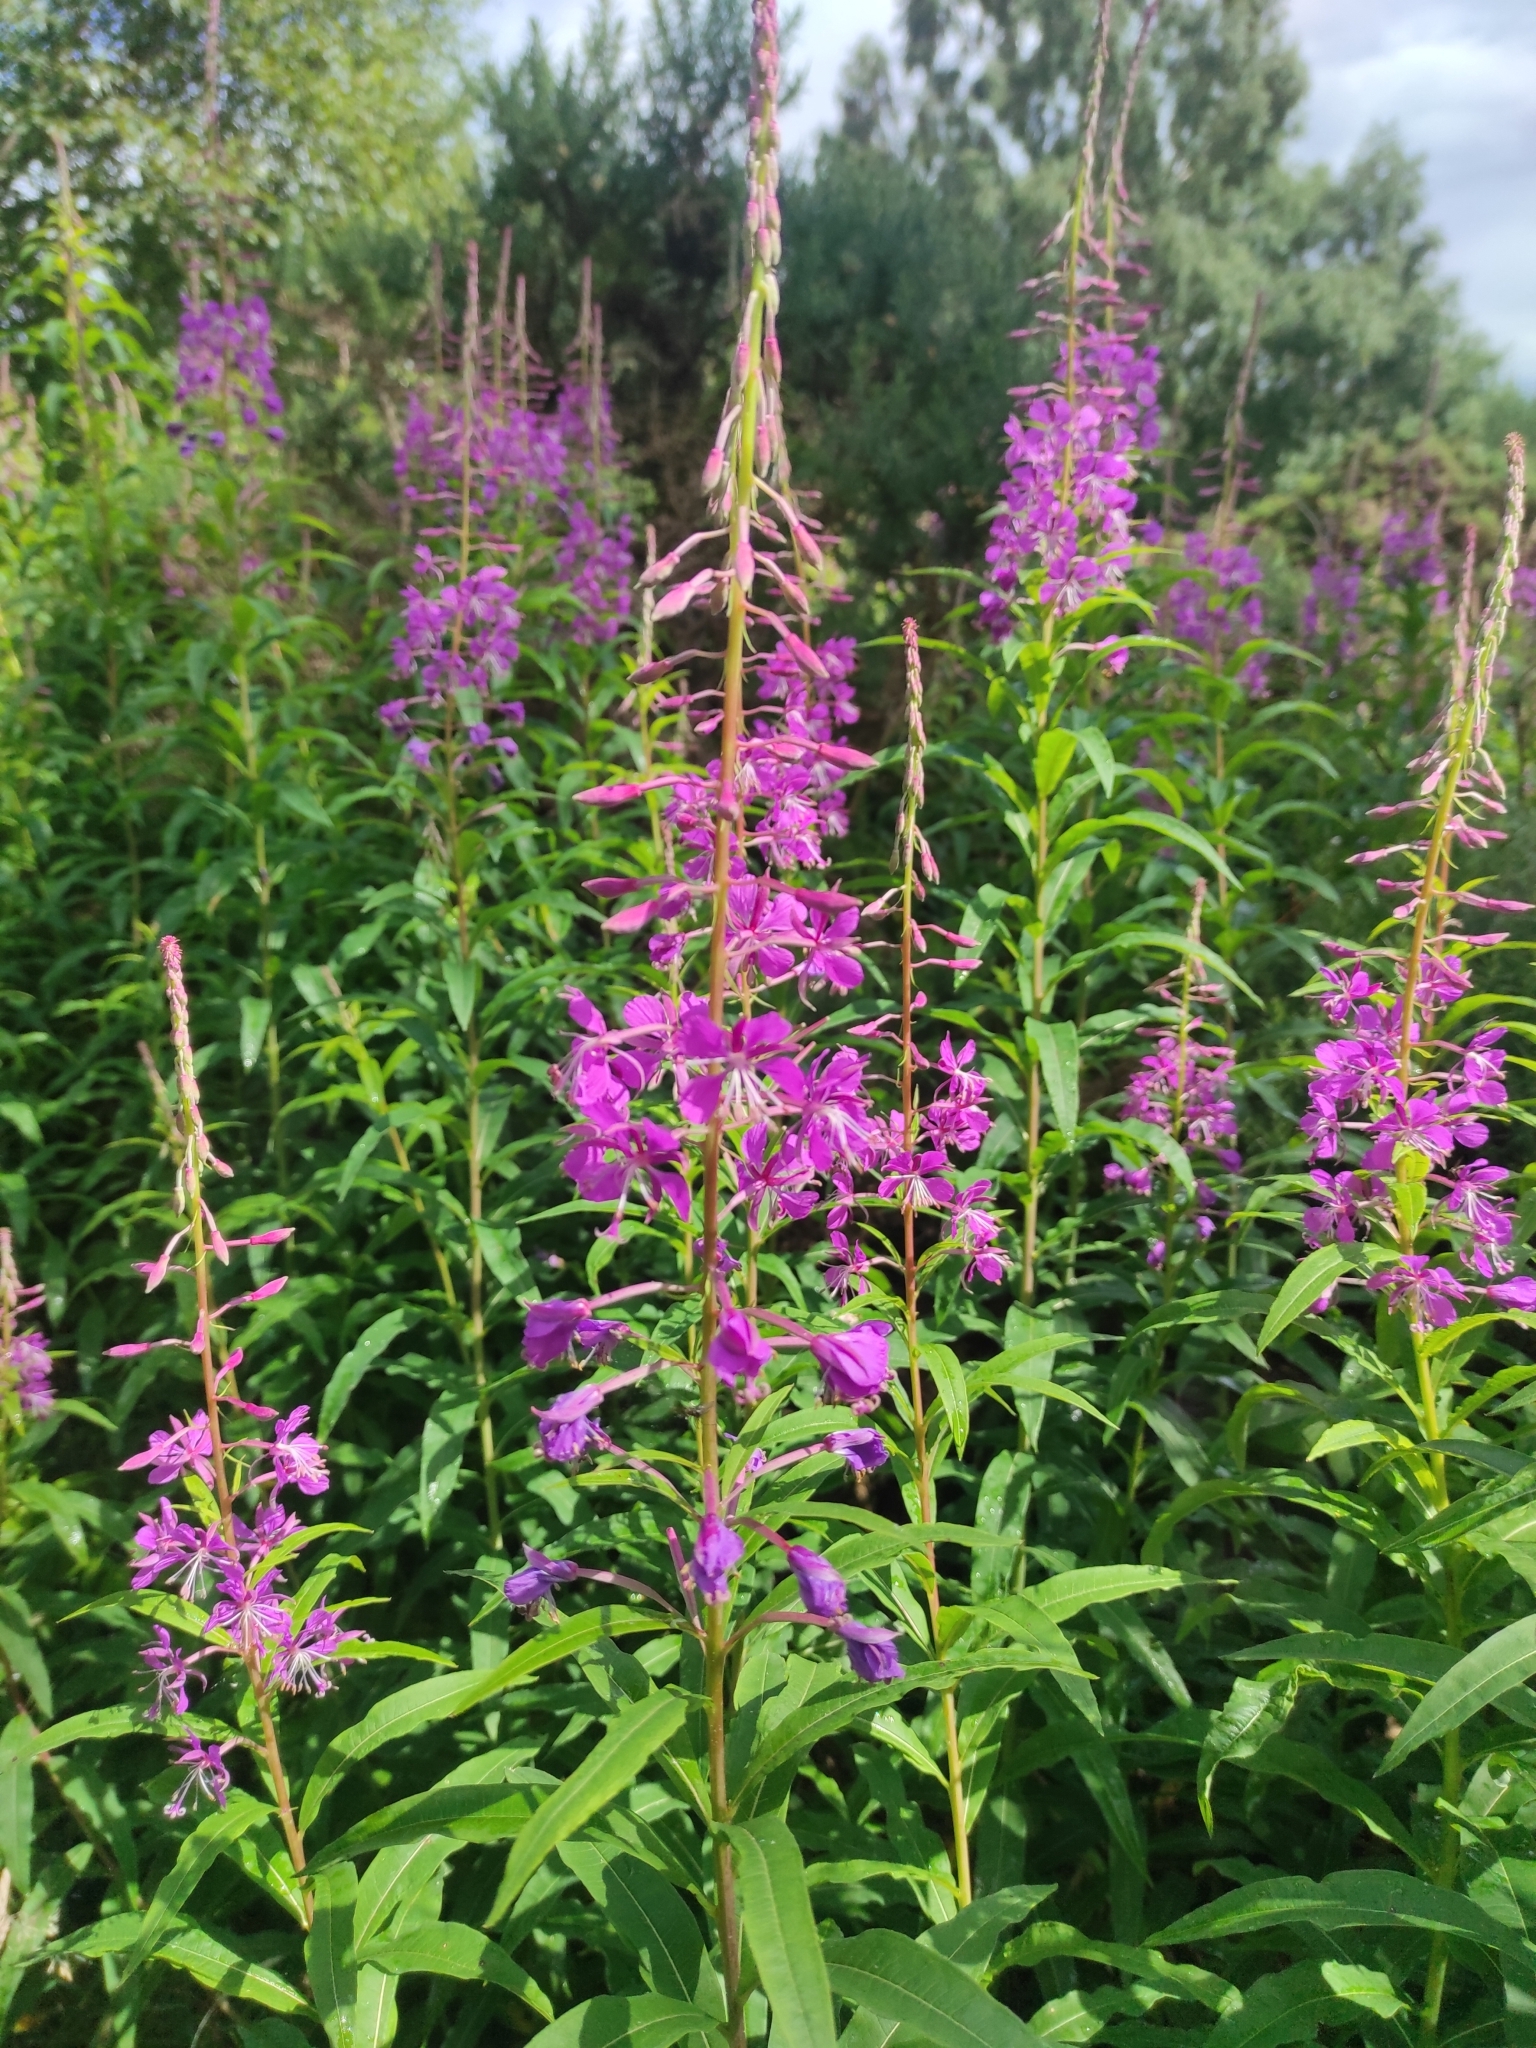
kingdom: Plantae
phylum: Tracheophyta
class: Magnoliopsida
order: Myrtales
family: Onagraceae
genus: Chamaenerion
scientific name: Chamaenerion angustifolium
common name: Fireweed
